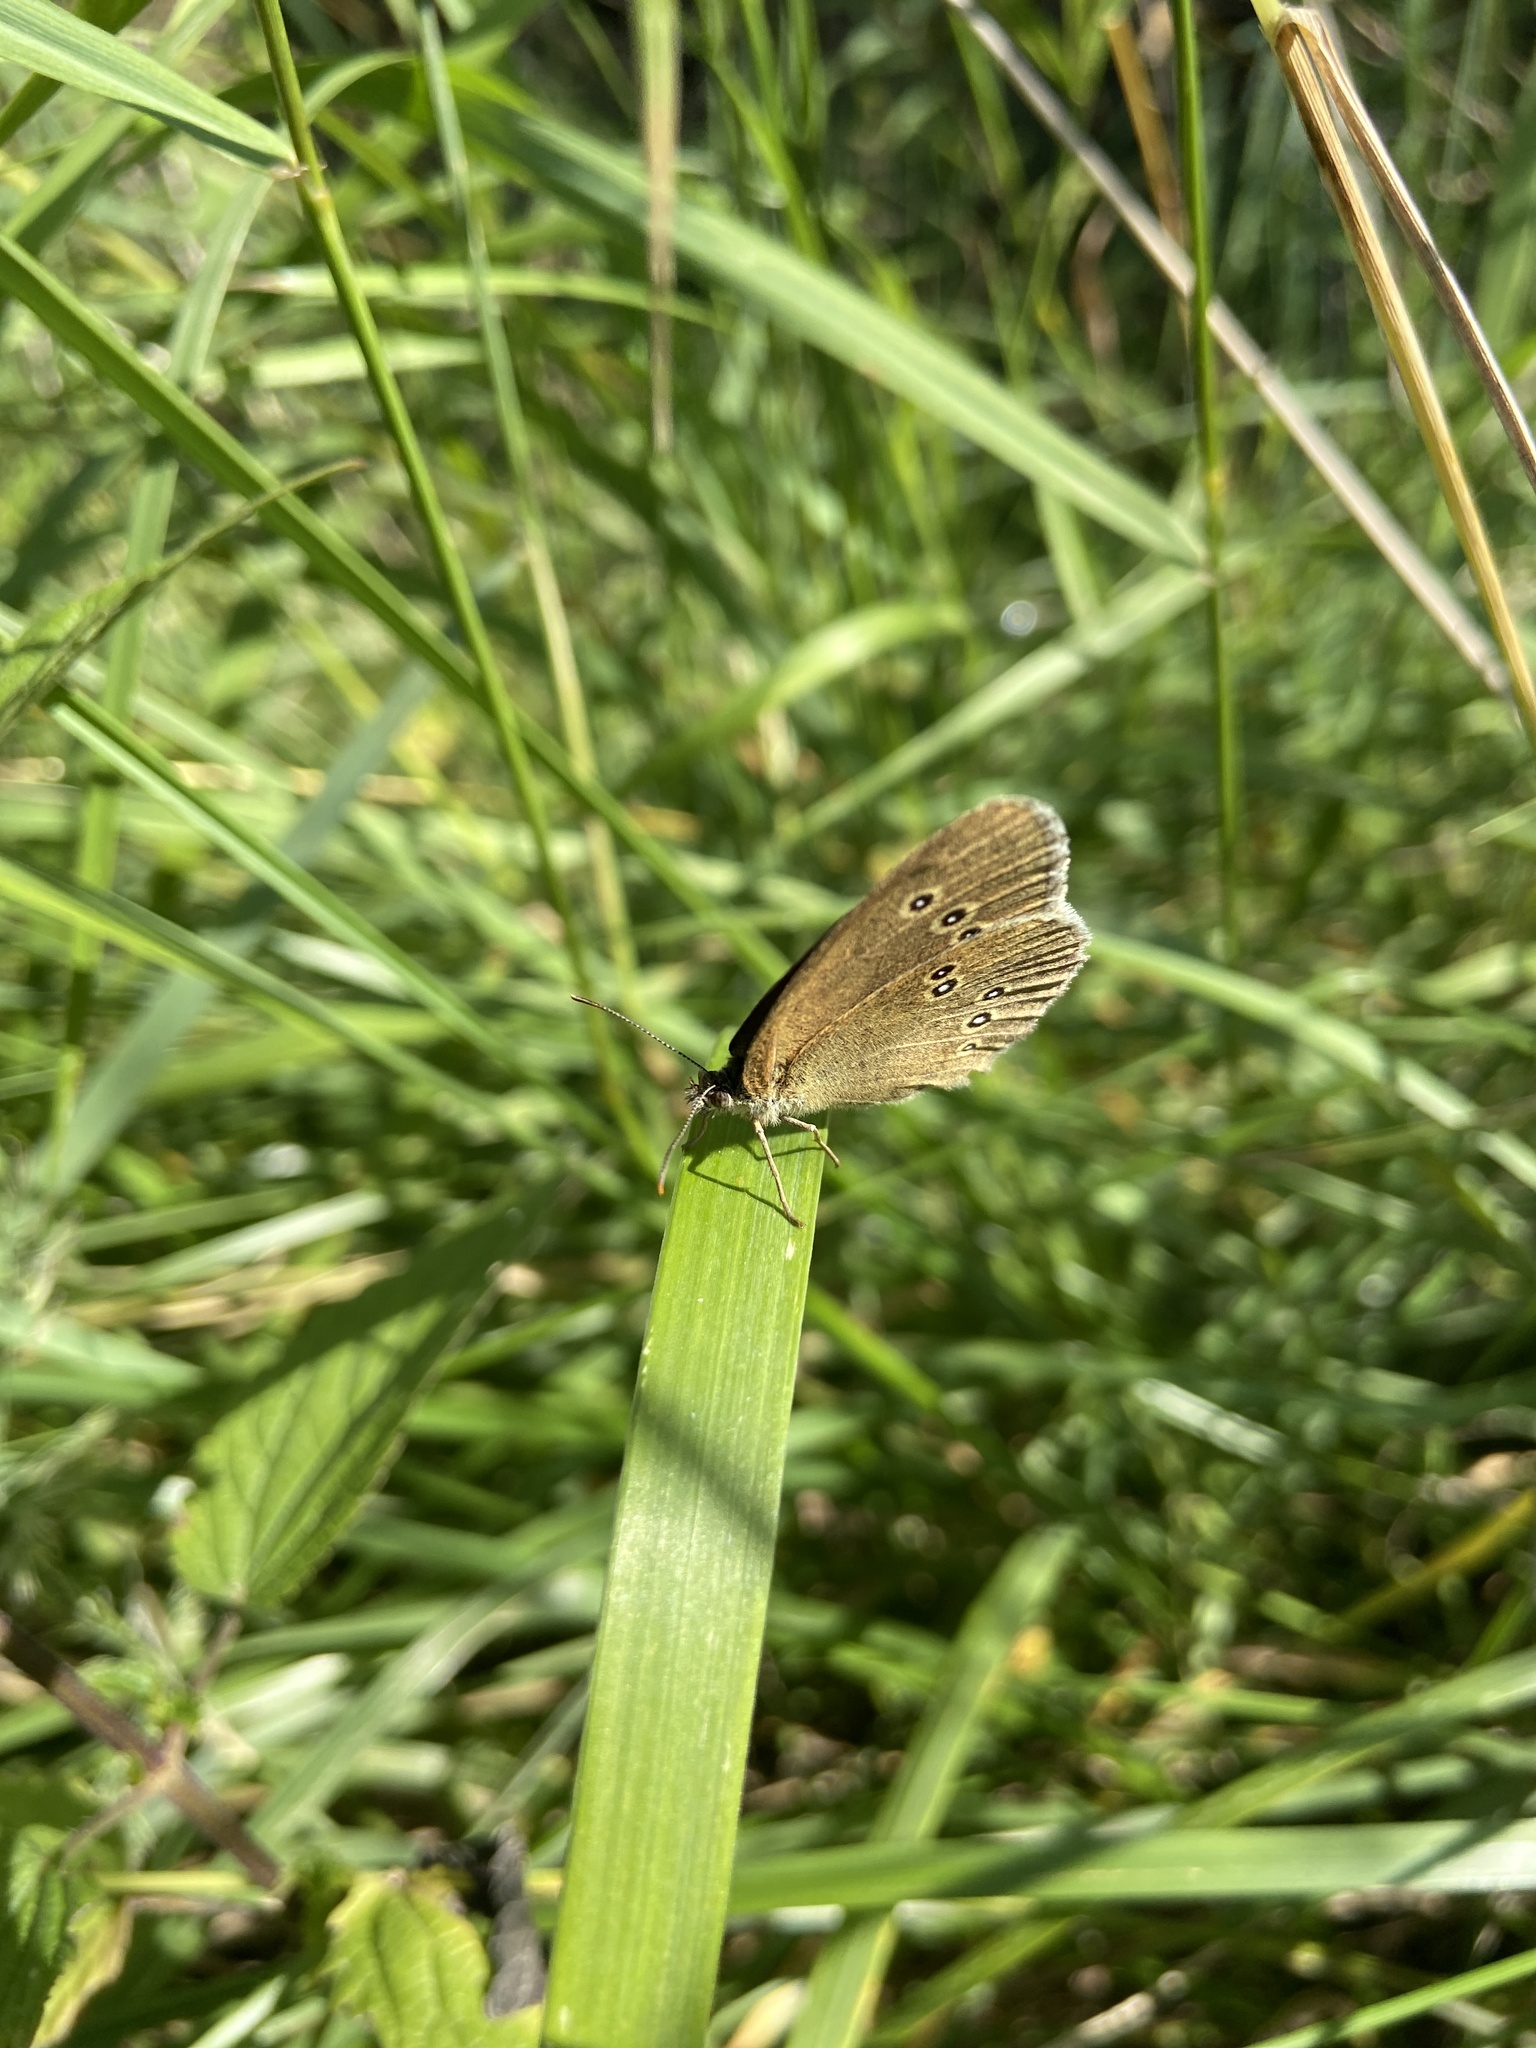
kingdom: Animalia
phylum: Arthropoda
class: Insecta
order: Lepidoptera
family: Nymphalidae
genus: Aphantopus
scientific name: Aphantopus hyperantus
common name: Ringlet
